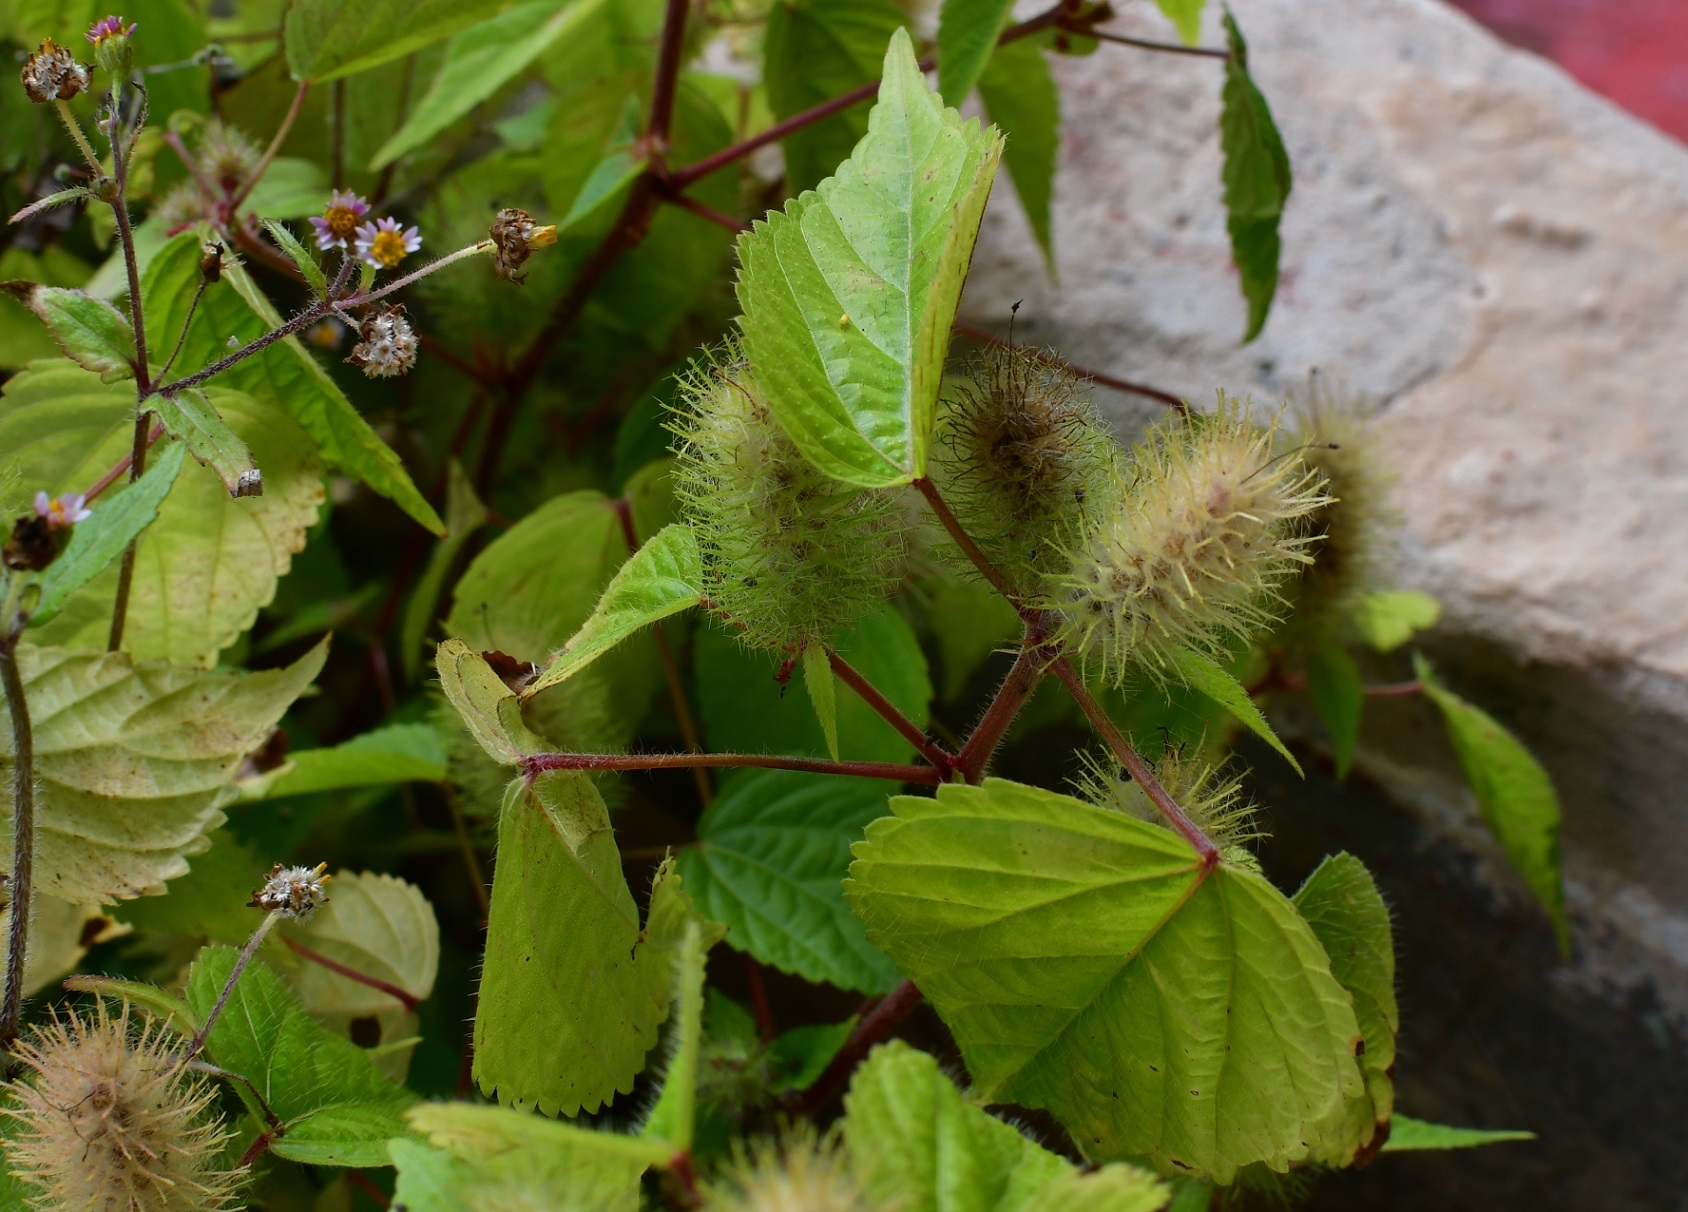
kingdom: Plantae
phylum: Tracheophyta
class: Magnoliopsida
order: Malpighiales
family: Euphorbiaceae
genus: Acalypha
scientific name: Acalypha alopecuroidea
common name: Foxtail copperleaf
